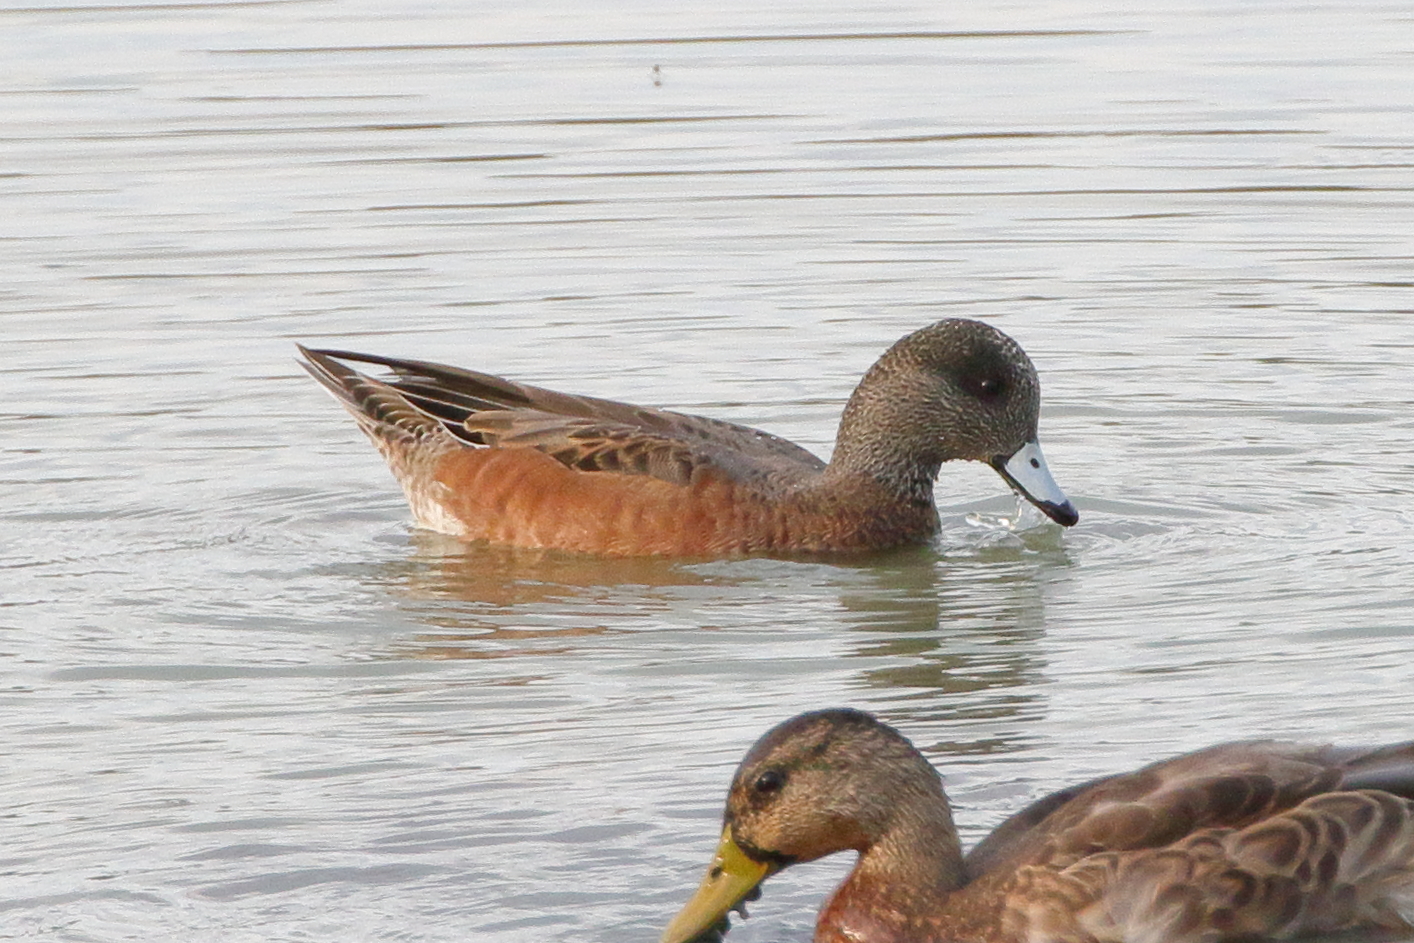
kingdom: Animalia
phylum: Chordata
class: Aves
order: Anseriformes
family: Anatidae
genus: Mareca
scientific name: Mareca americana
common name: American wigeon
